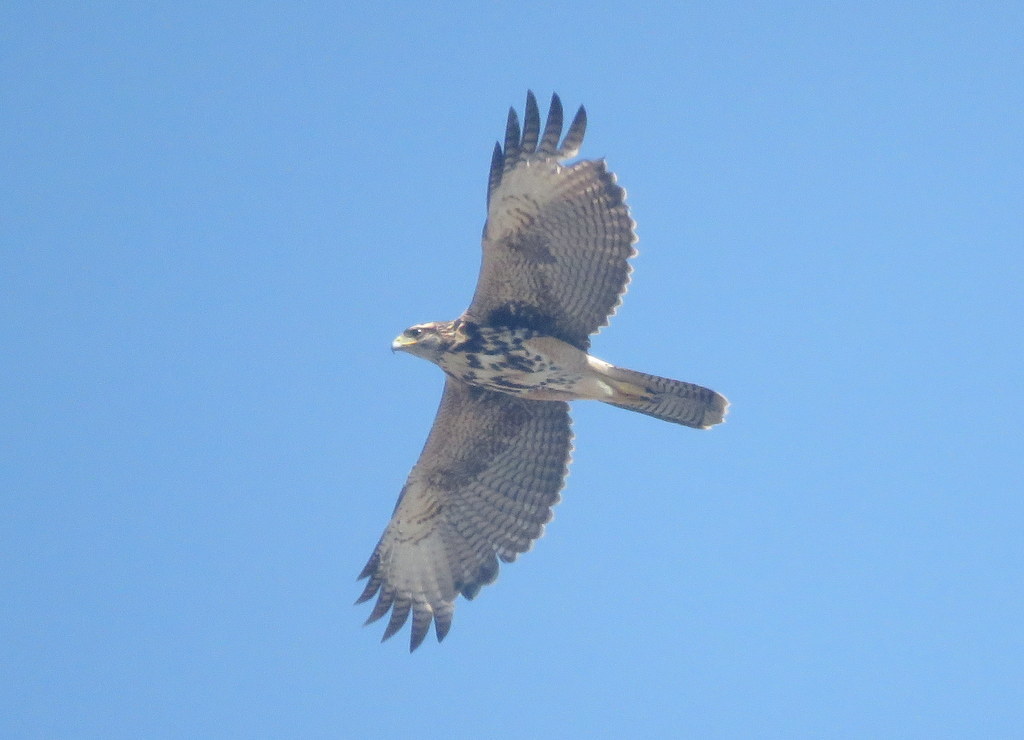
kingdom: Animalia
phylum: Chordata
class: Aves
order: Accipitriformes
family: Accipitridae
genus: Parabuteo
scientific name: Parabuteo unicinctus
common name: Harris's hawk
